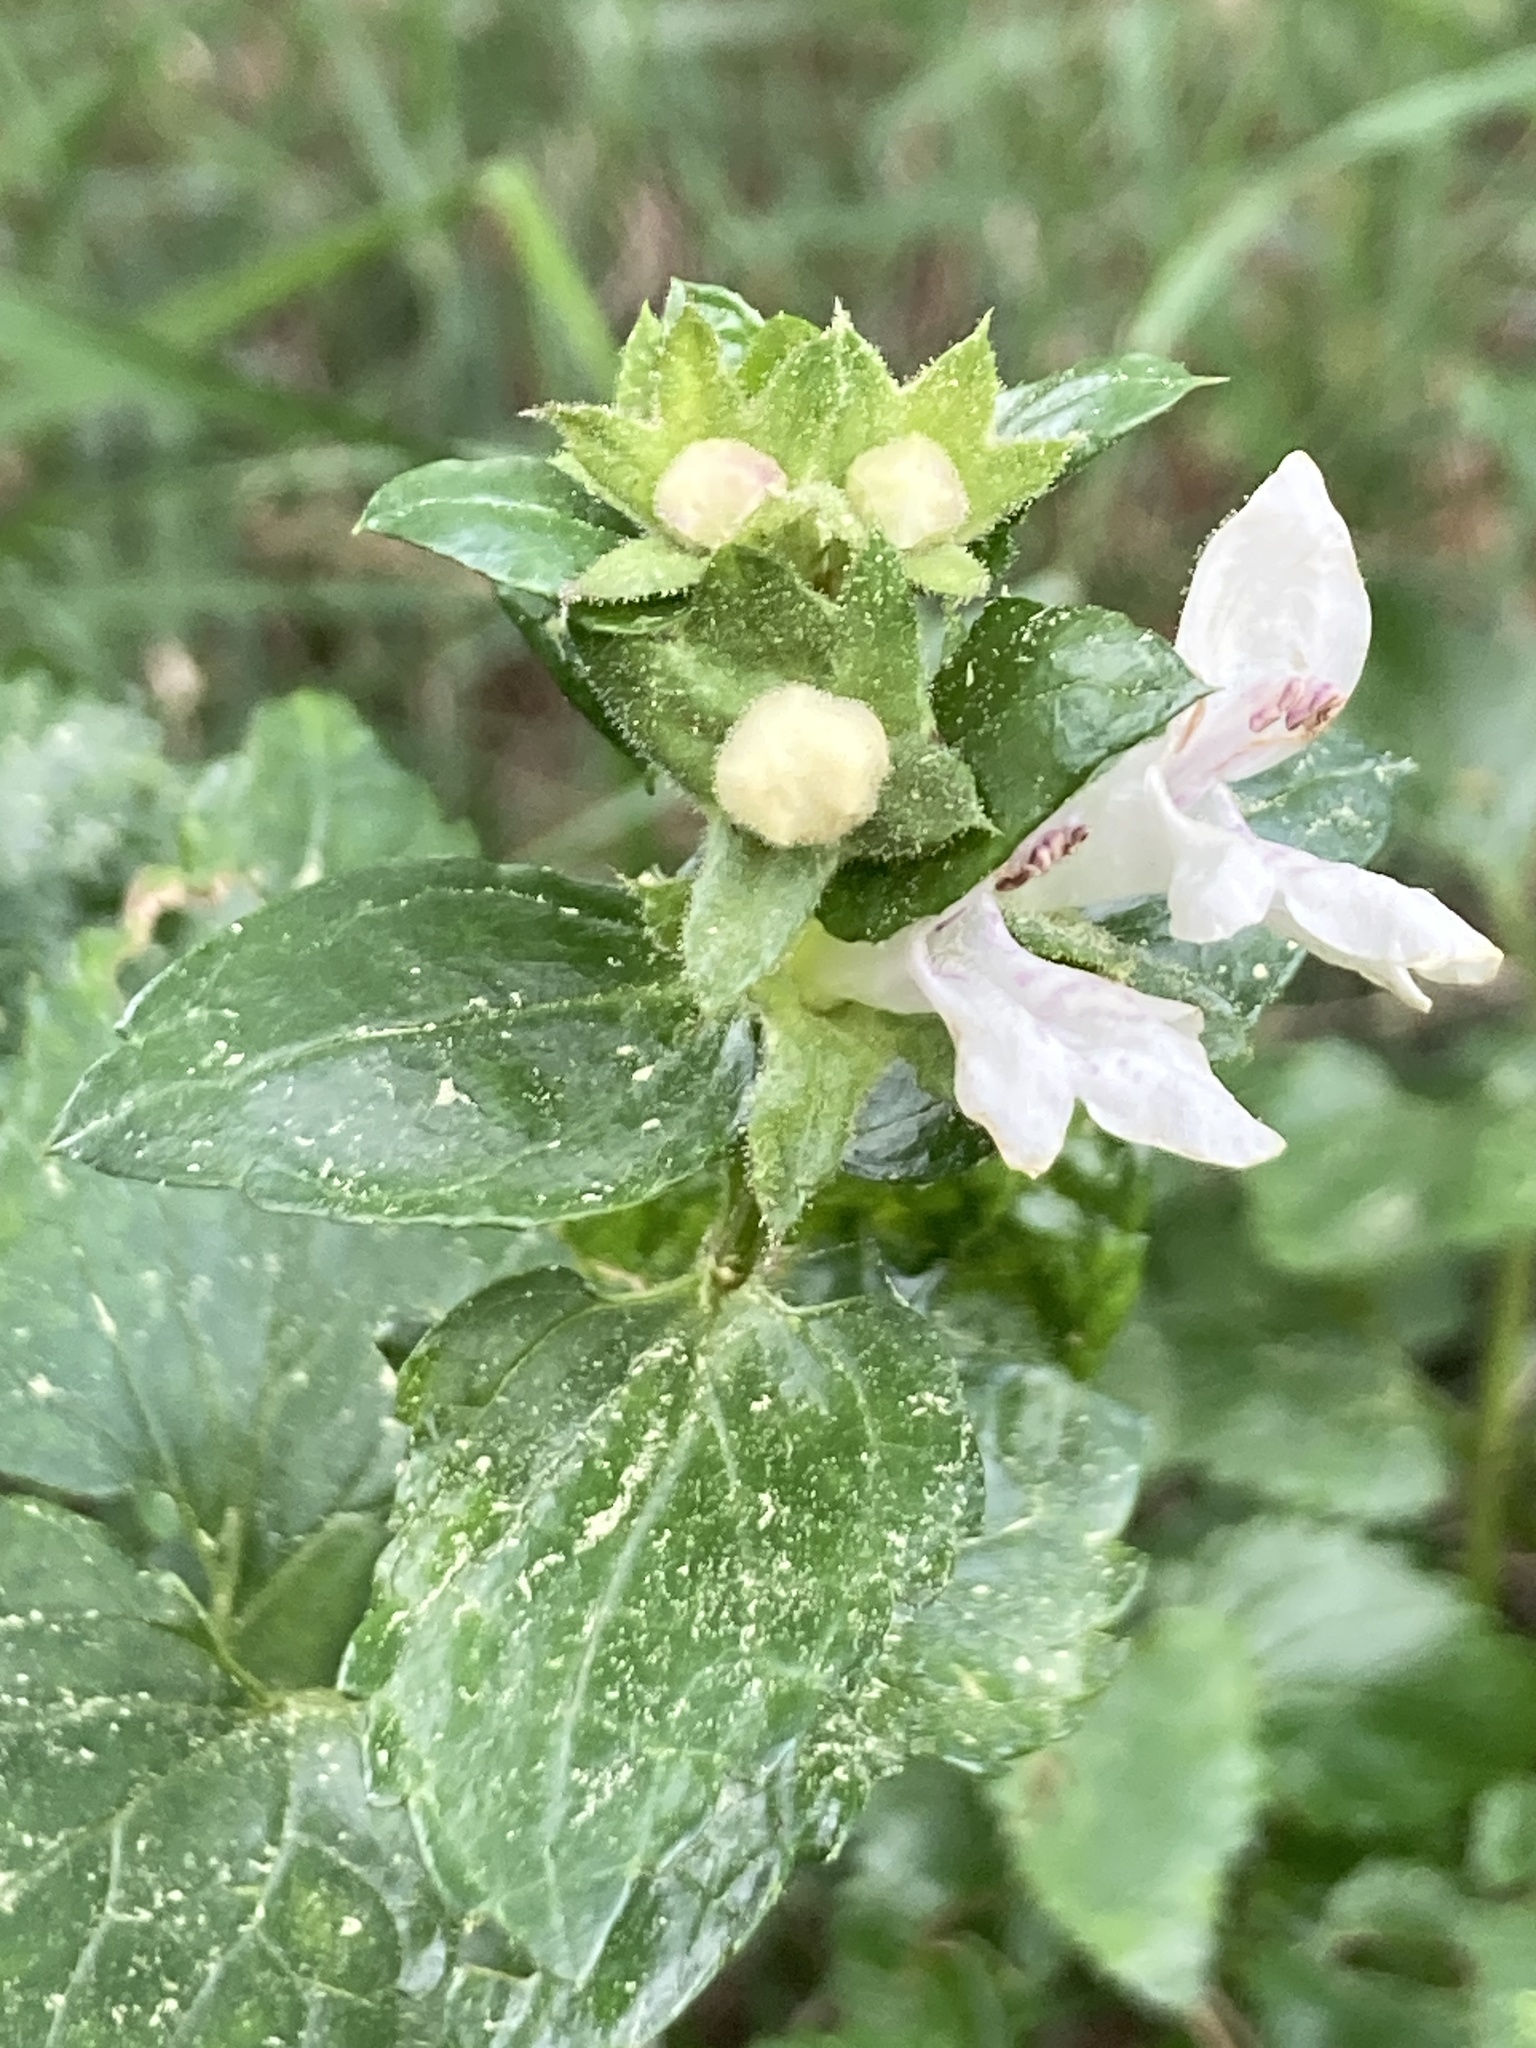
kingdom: Plantae
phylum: Tracheophyta
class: Magnoliopsida
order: Lamiales
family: Lamiaceae
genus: Prasium
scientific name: Prasium majus
